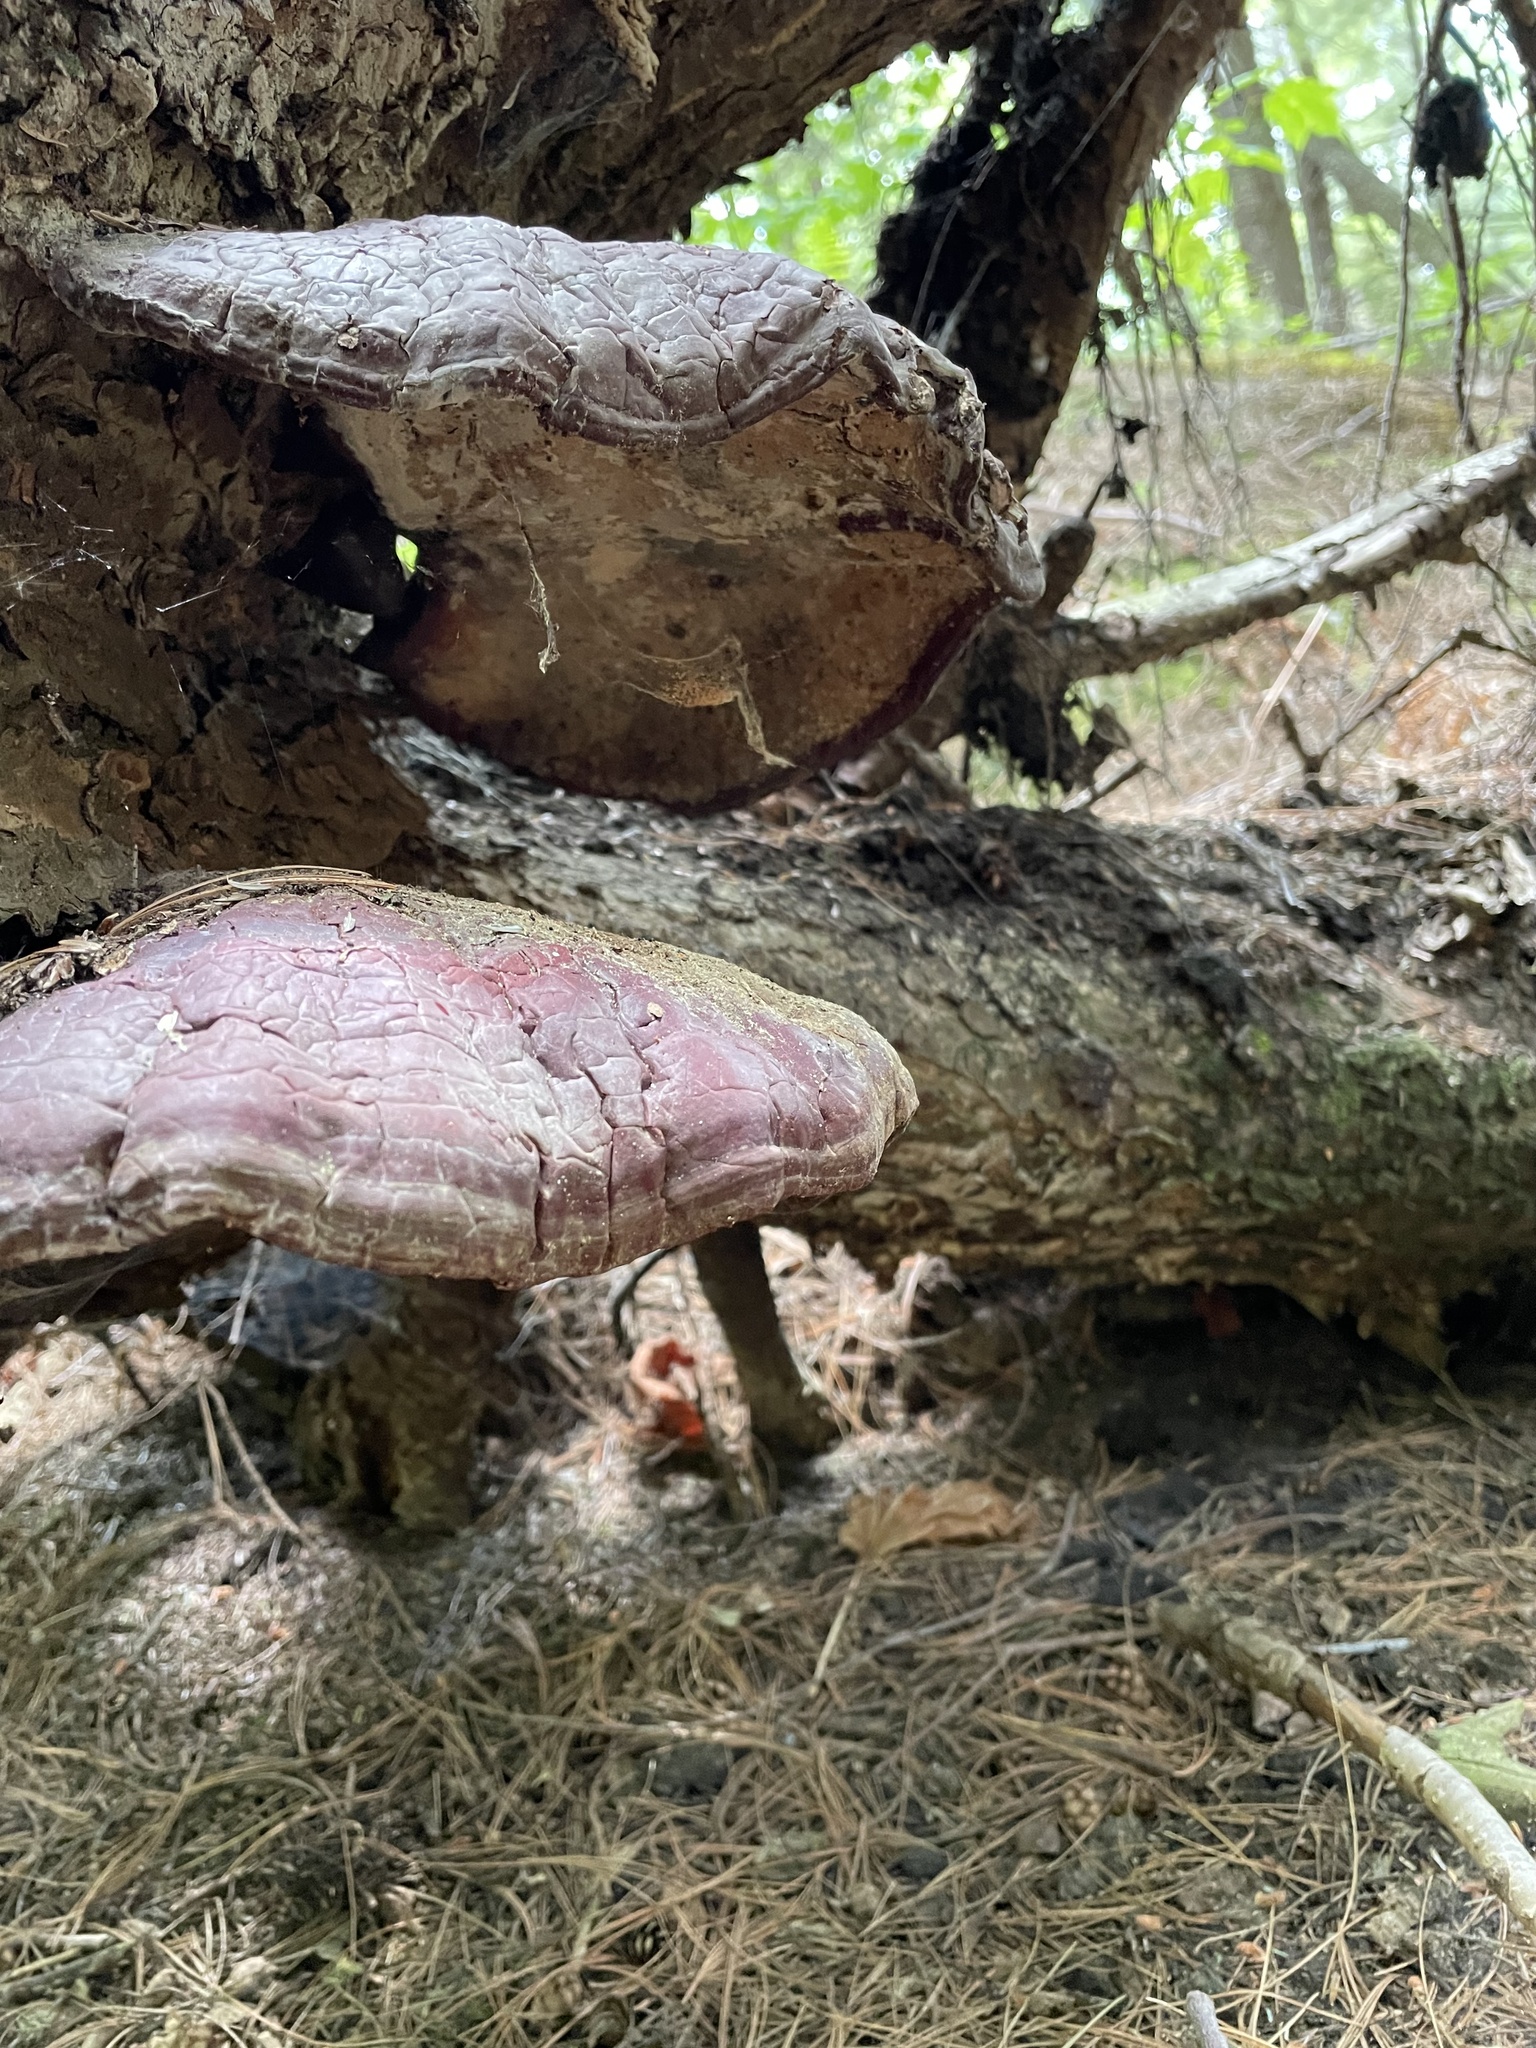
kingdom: Fungi
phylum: Basidiomycota
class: Agaricomycetes
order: Polyporales
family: Polyporaceae
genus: Ganoderma
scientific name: Ganoderma tsugae
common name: Hemlock varnish shelf
